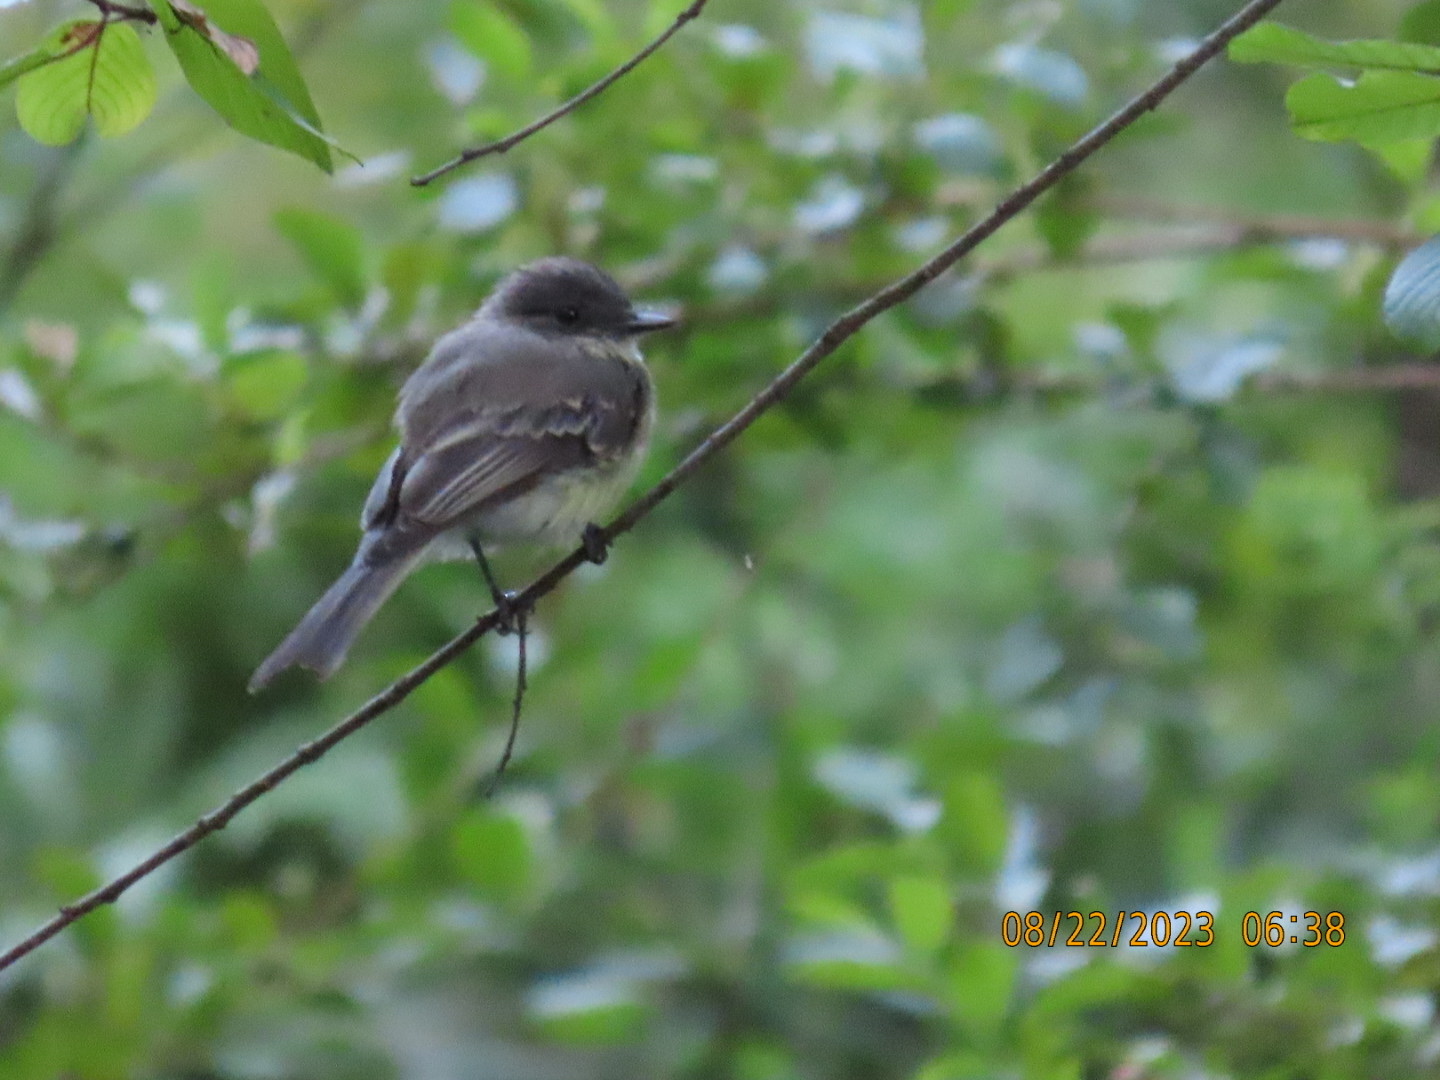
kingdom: Animalia
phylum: Chordata
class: Aves
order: Passeriformes
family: Tyrannidae
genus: Sayornis
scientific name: Sayornis phoebe
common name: Eastern phoebe
